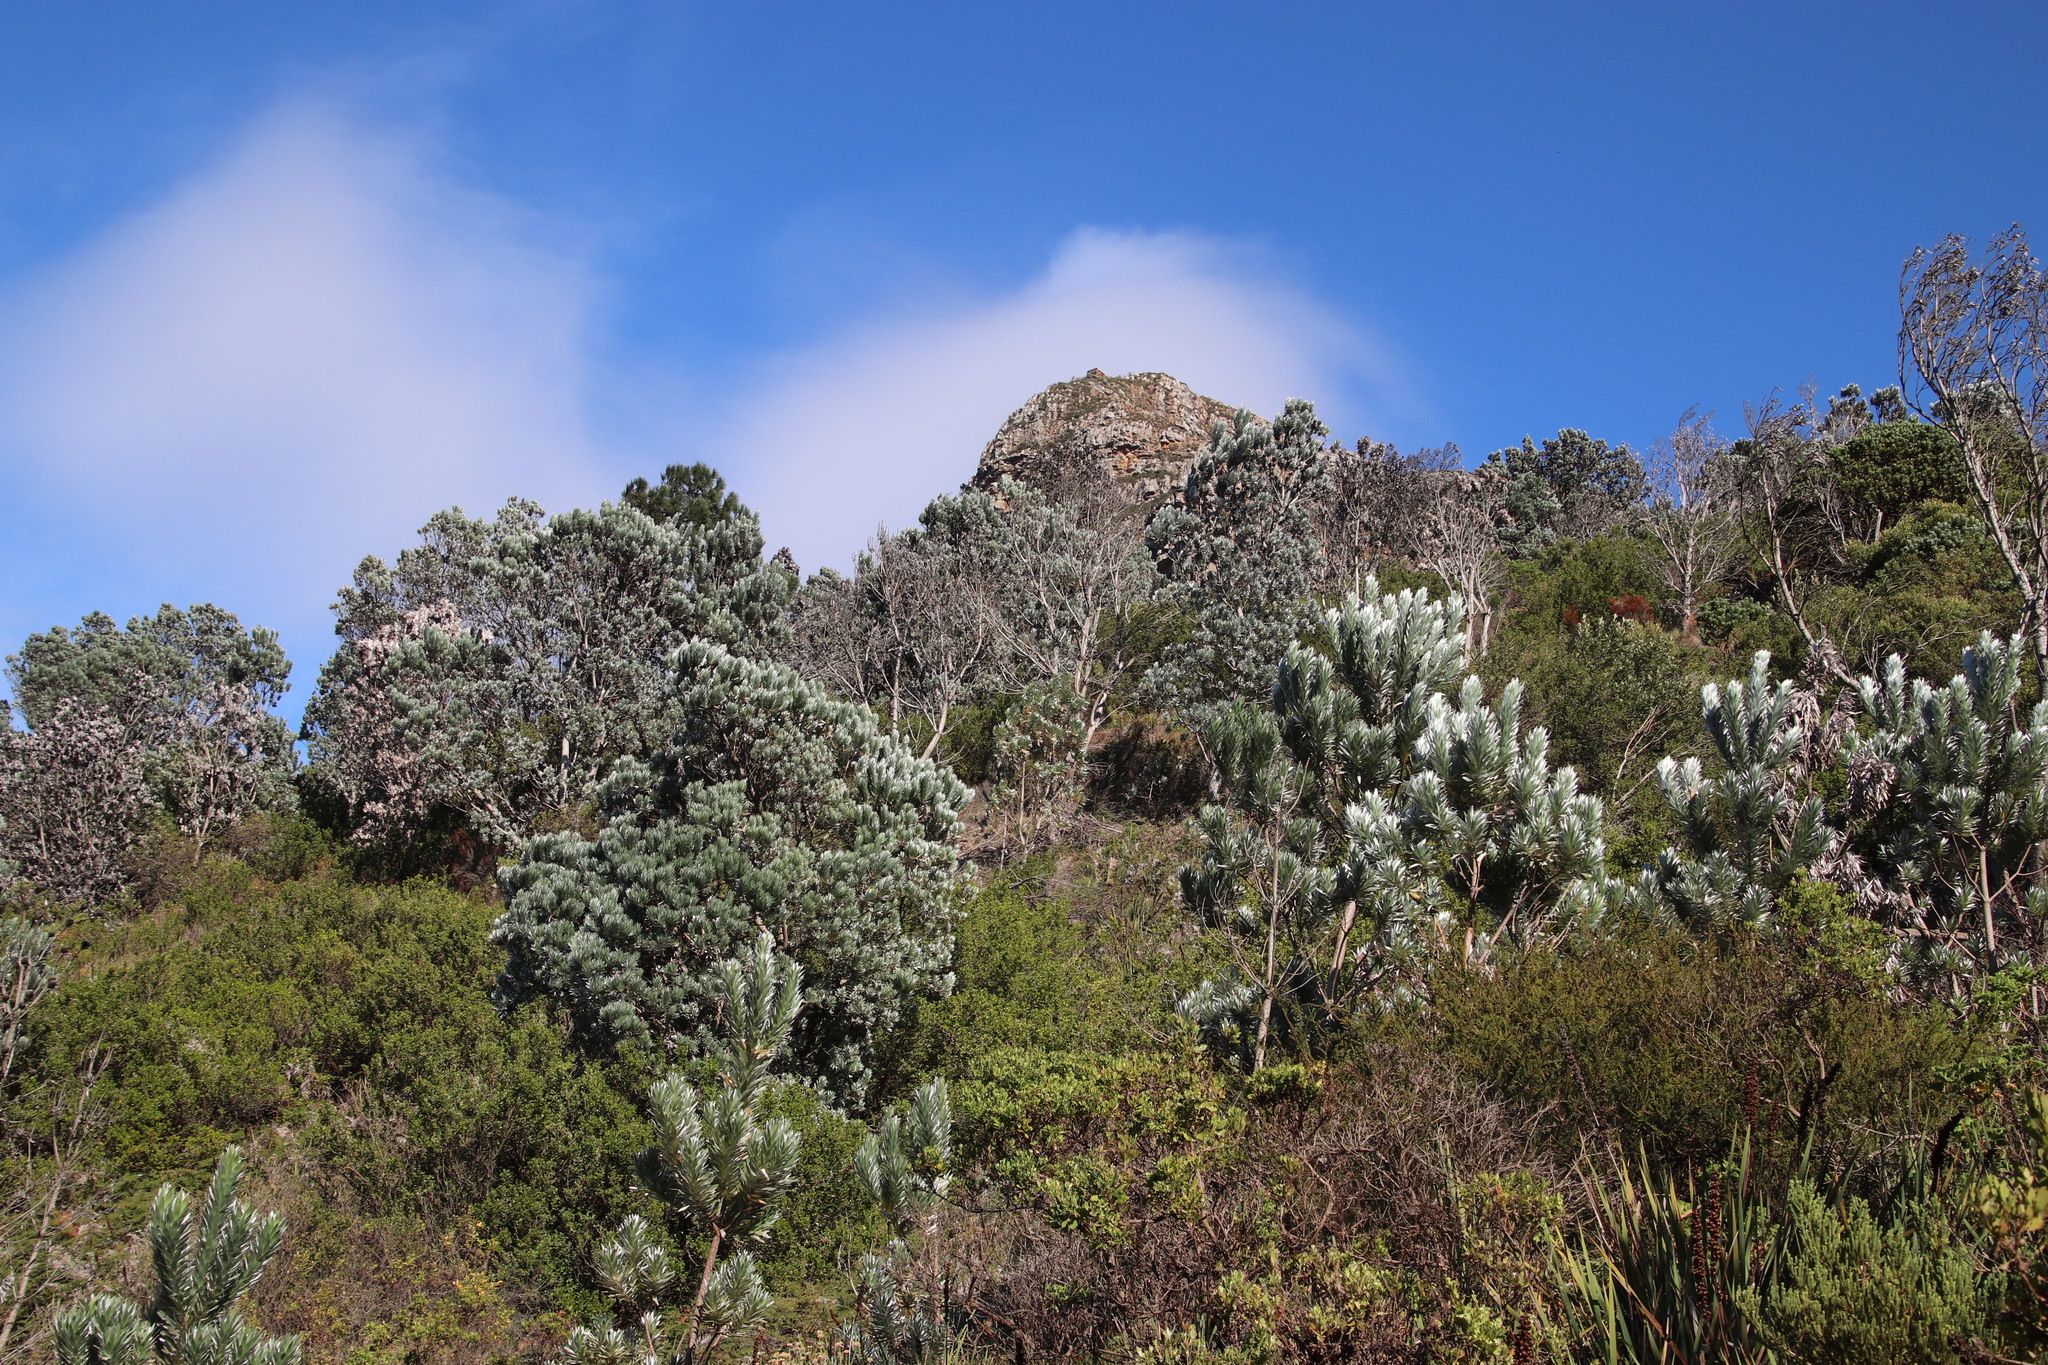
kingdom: Plantae
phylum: Tracheophyta
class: Magnoliopsida
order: Proteales
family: Proteaceae
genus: Leucadendron
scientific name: Leucadendron argenteum
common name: Cape silver tree
